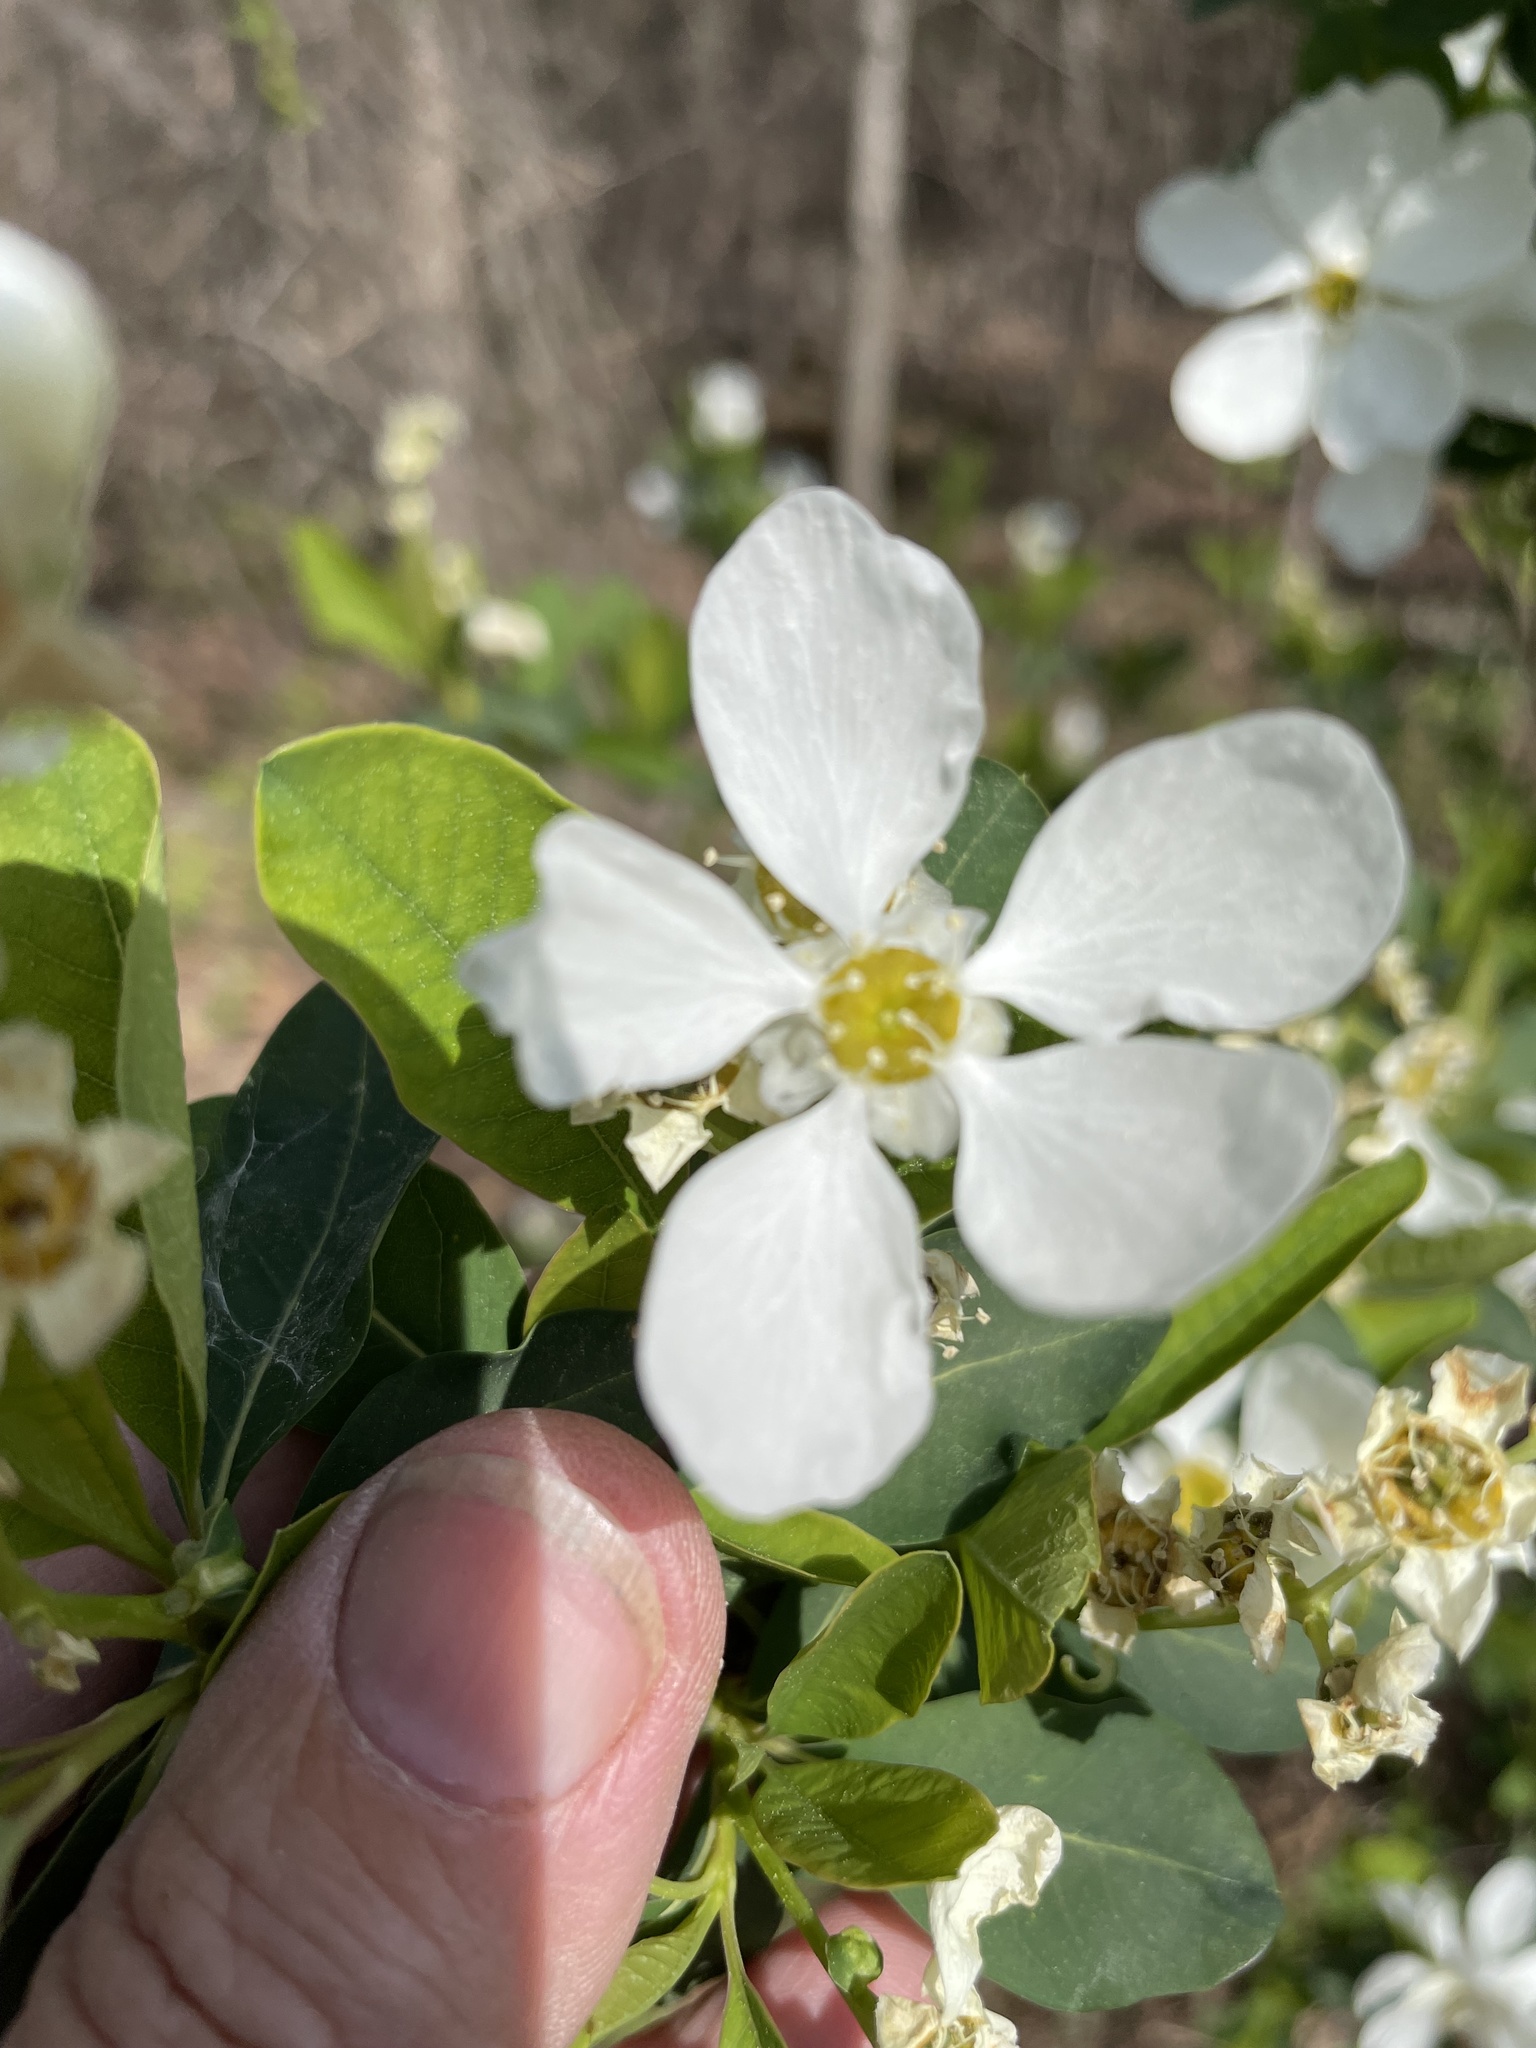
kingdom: Plantae
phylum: Tracheophyta
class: Magnoliopsida
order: Rosales
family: Rosaceae
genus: Exochorda
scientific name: Exochorda racemosa
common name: Common pearlbrush
